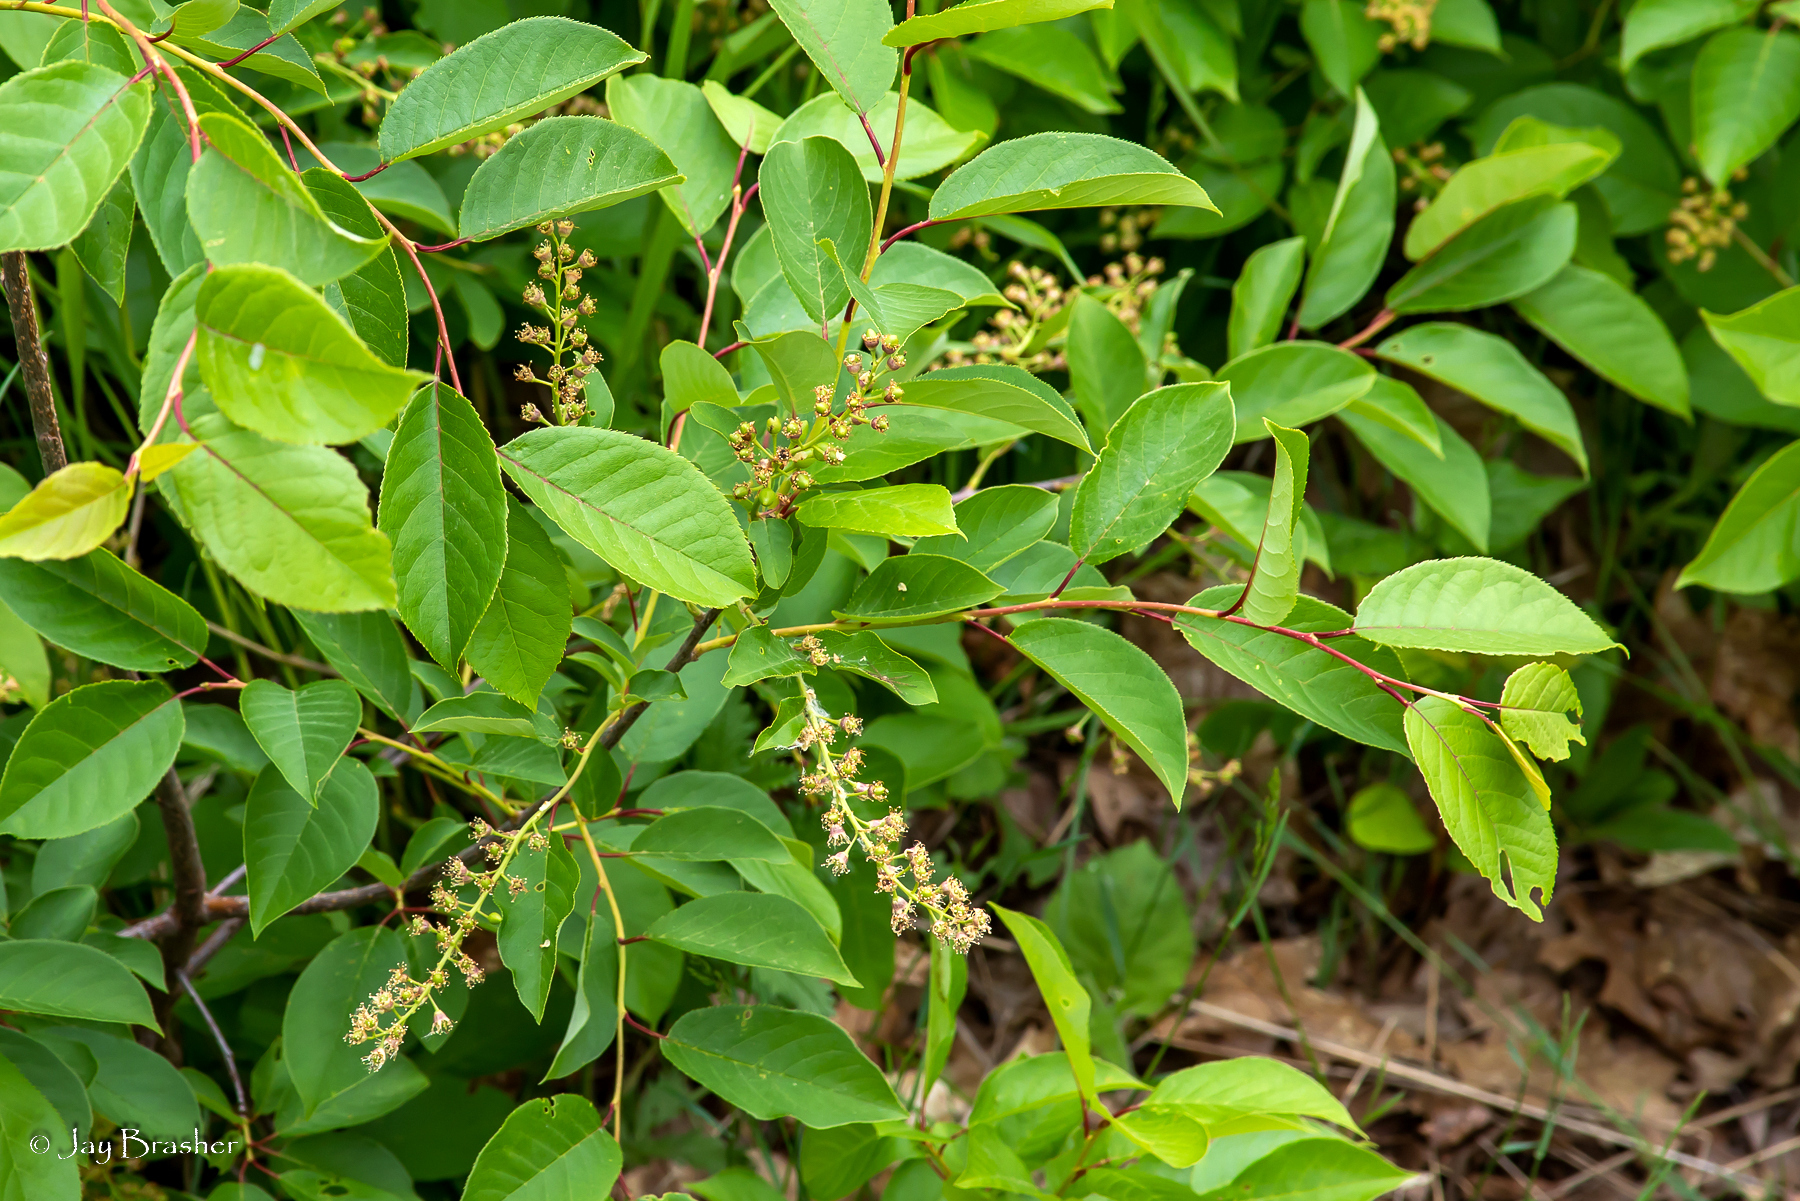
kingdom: Plantae
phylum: Tracheophyta
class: Magnoliopsida
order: Rosales
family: Rosaceae
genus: Prunus
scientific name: Prunus virginiana
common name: Chokecherry
